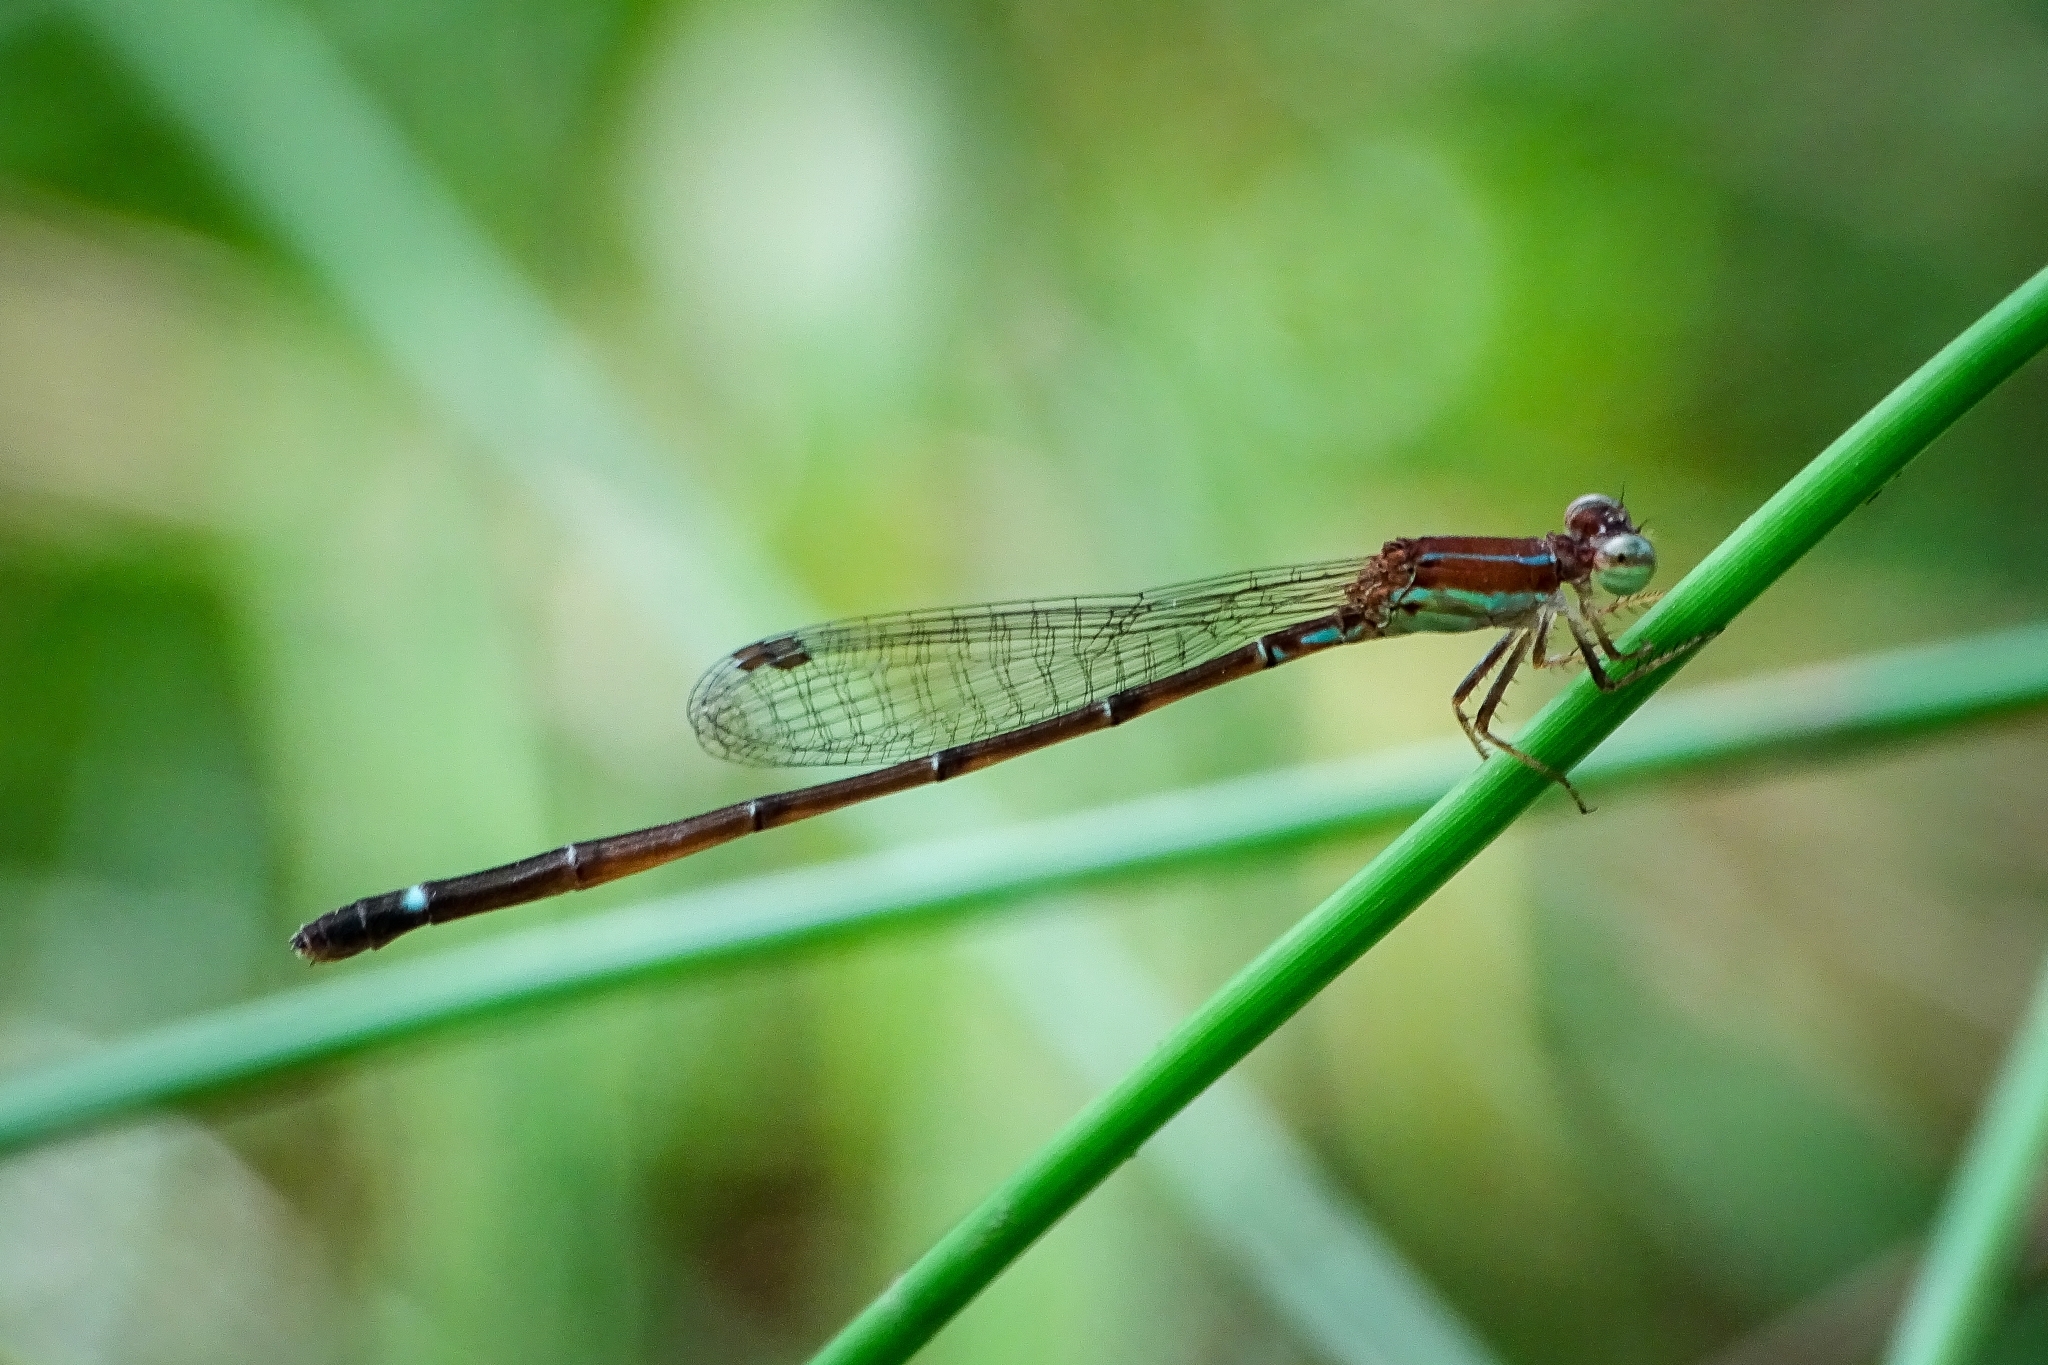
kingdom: Animalia
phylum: Arthropoda
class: Insecta
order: Odonata
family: Coenagrionidae
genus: Mortonagrion
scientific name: Mortonagrion varralli
